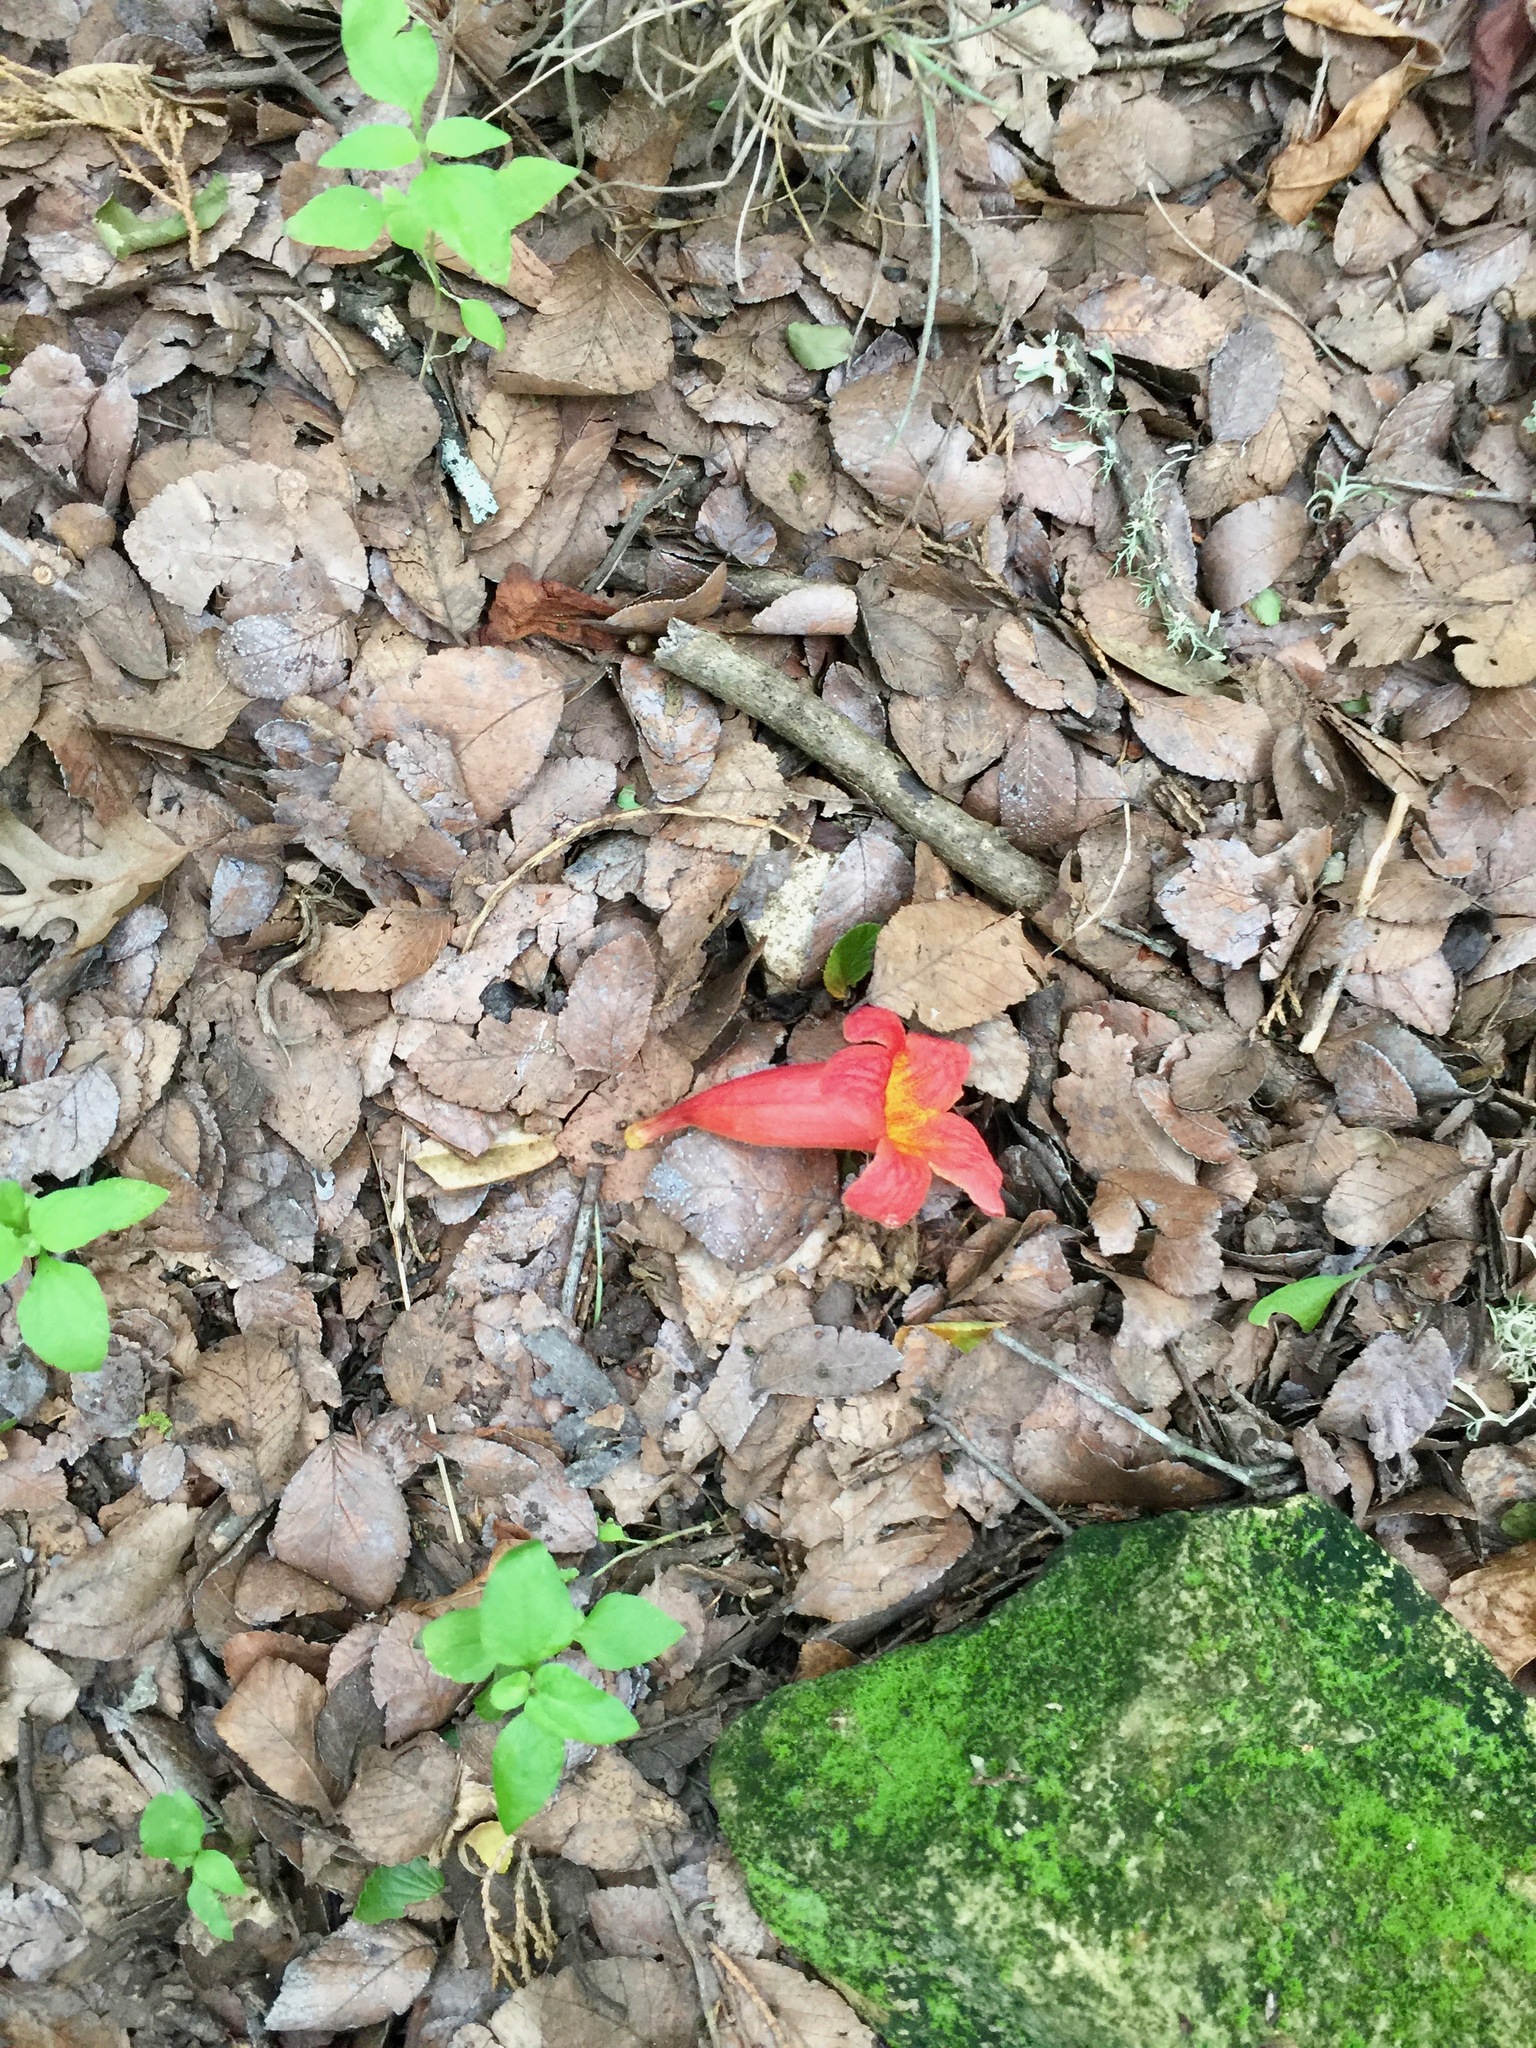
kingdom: Plantae
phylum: Tracheophyta
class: Magnoliopsida
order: Lamiales
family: Bignoniaceae
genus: Bignonia
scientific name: Bignonia capreolata
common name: Crossvine
